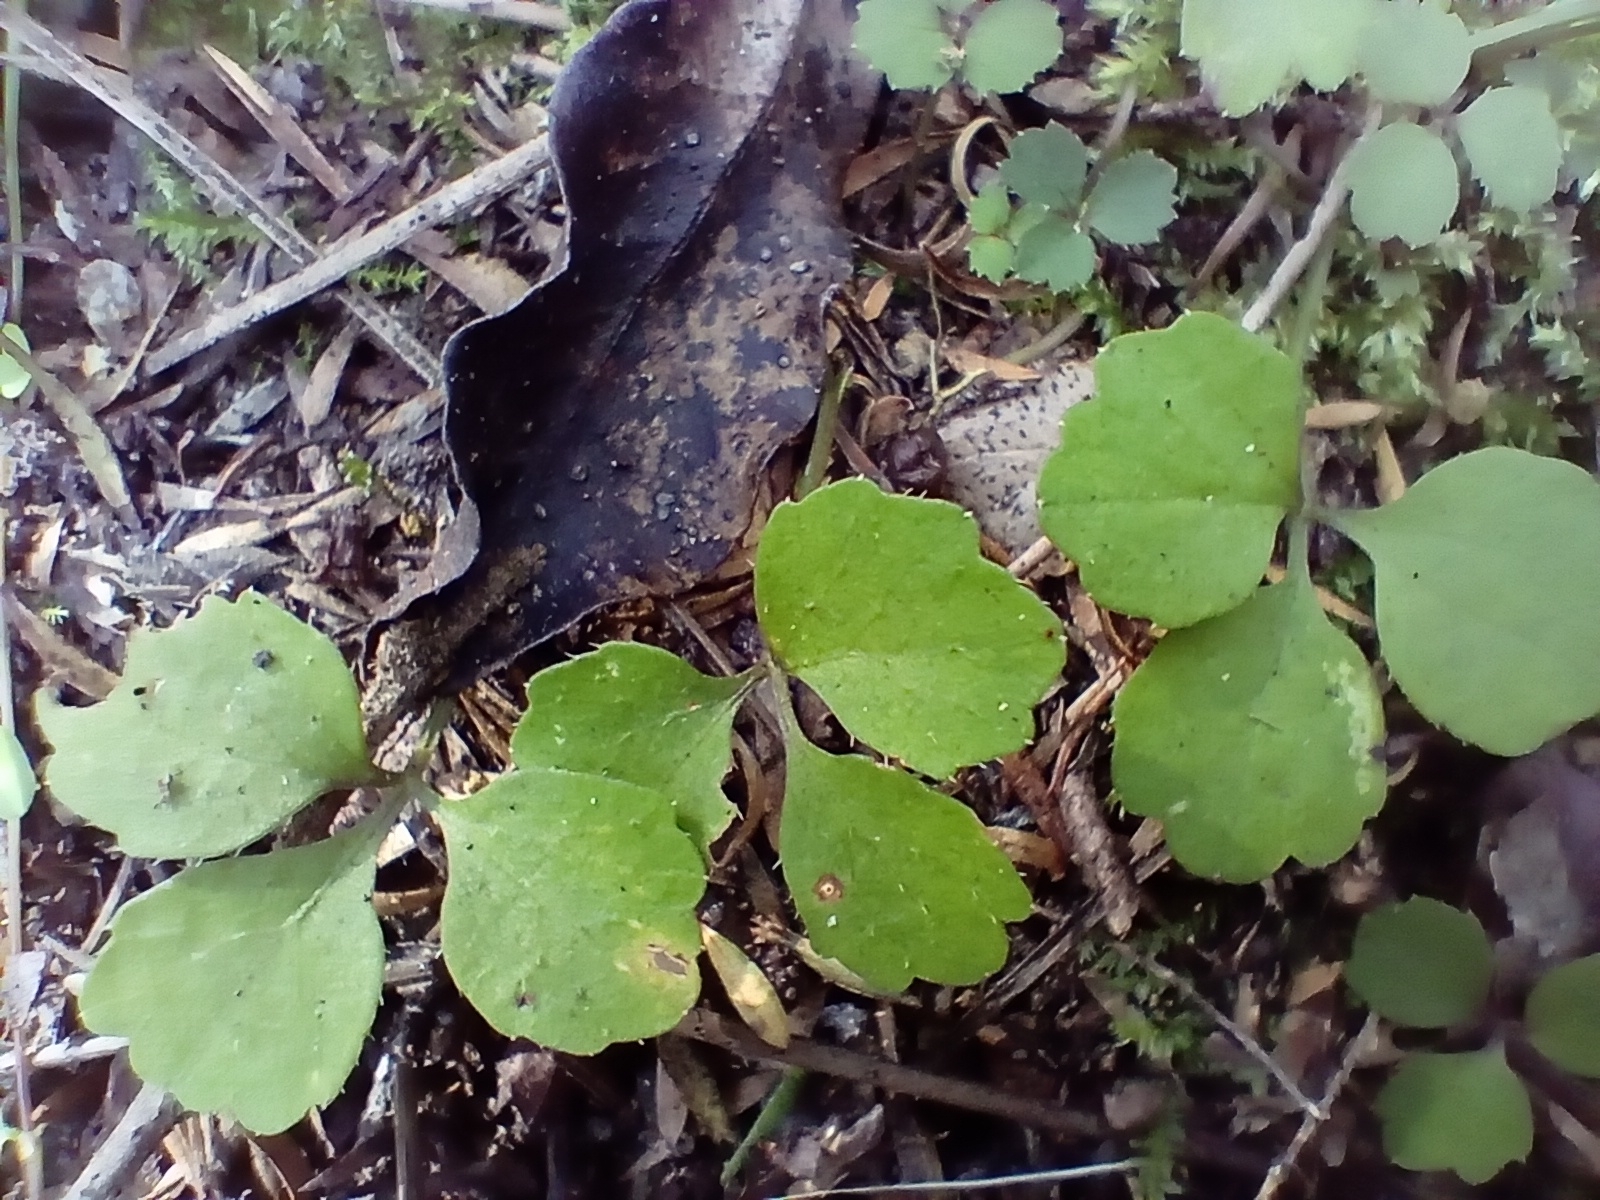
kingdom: Plantae
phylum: Tracheophyta
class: Magnoliopsida
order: Apiales
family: Apiaceae
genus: Azorella
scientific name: Azorella hookeri
